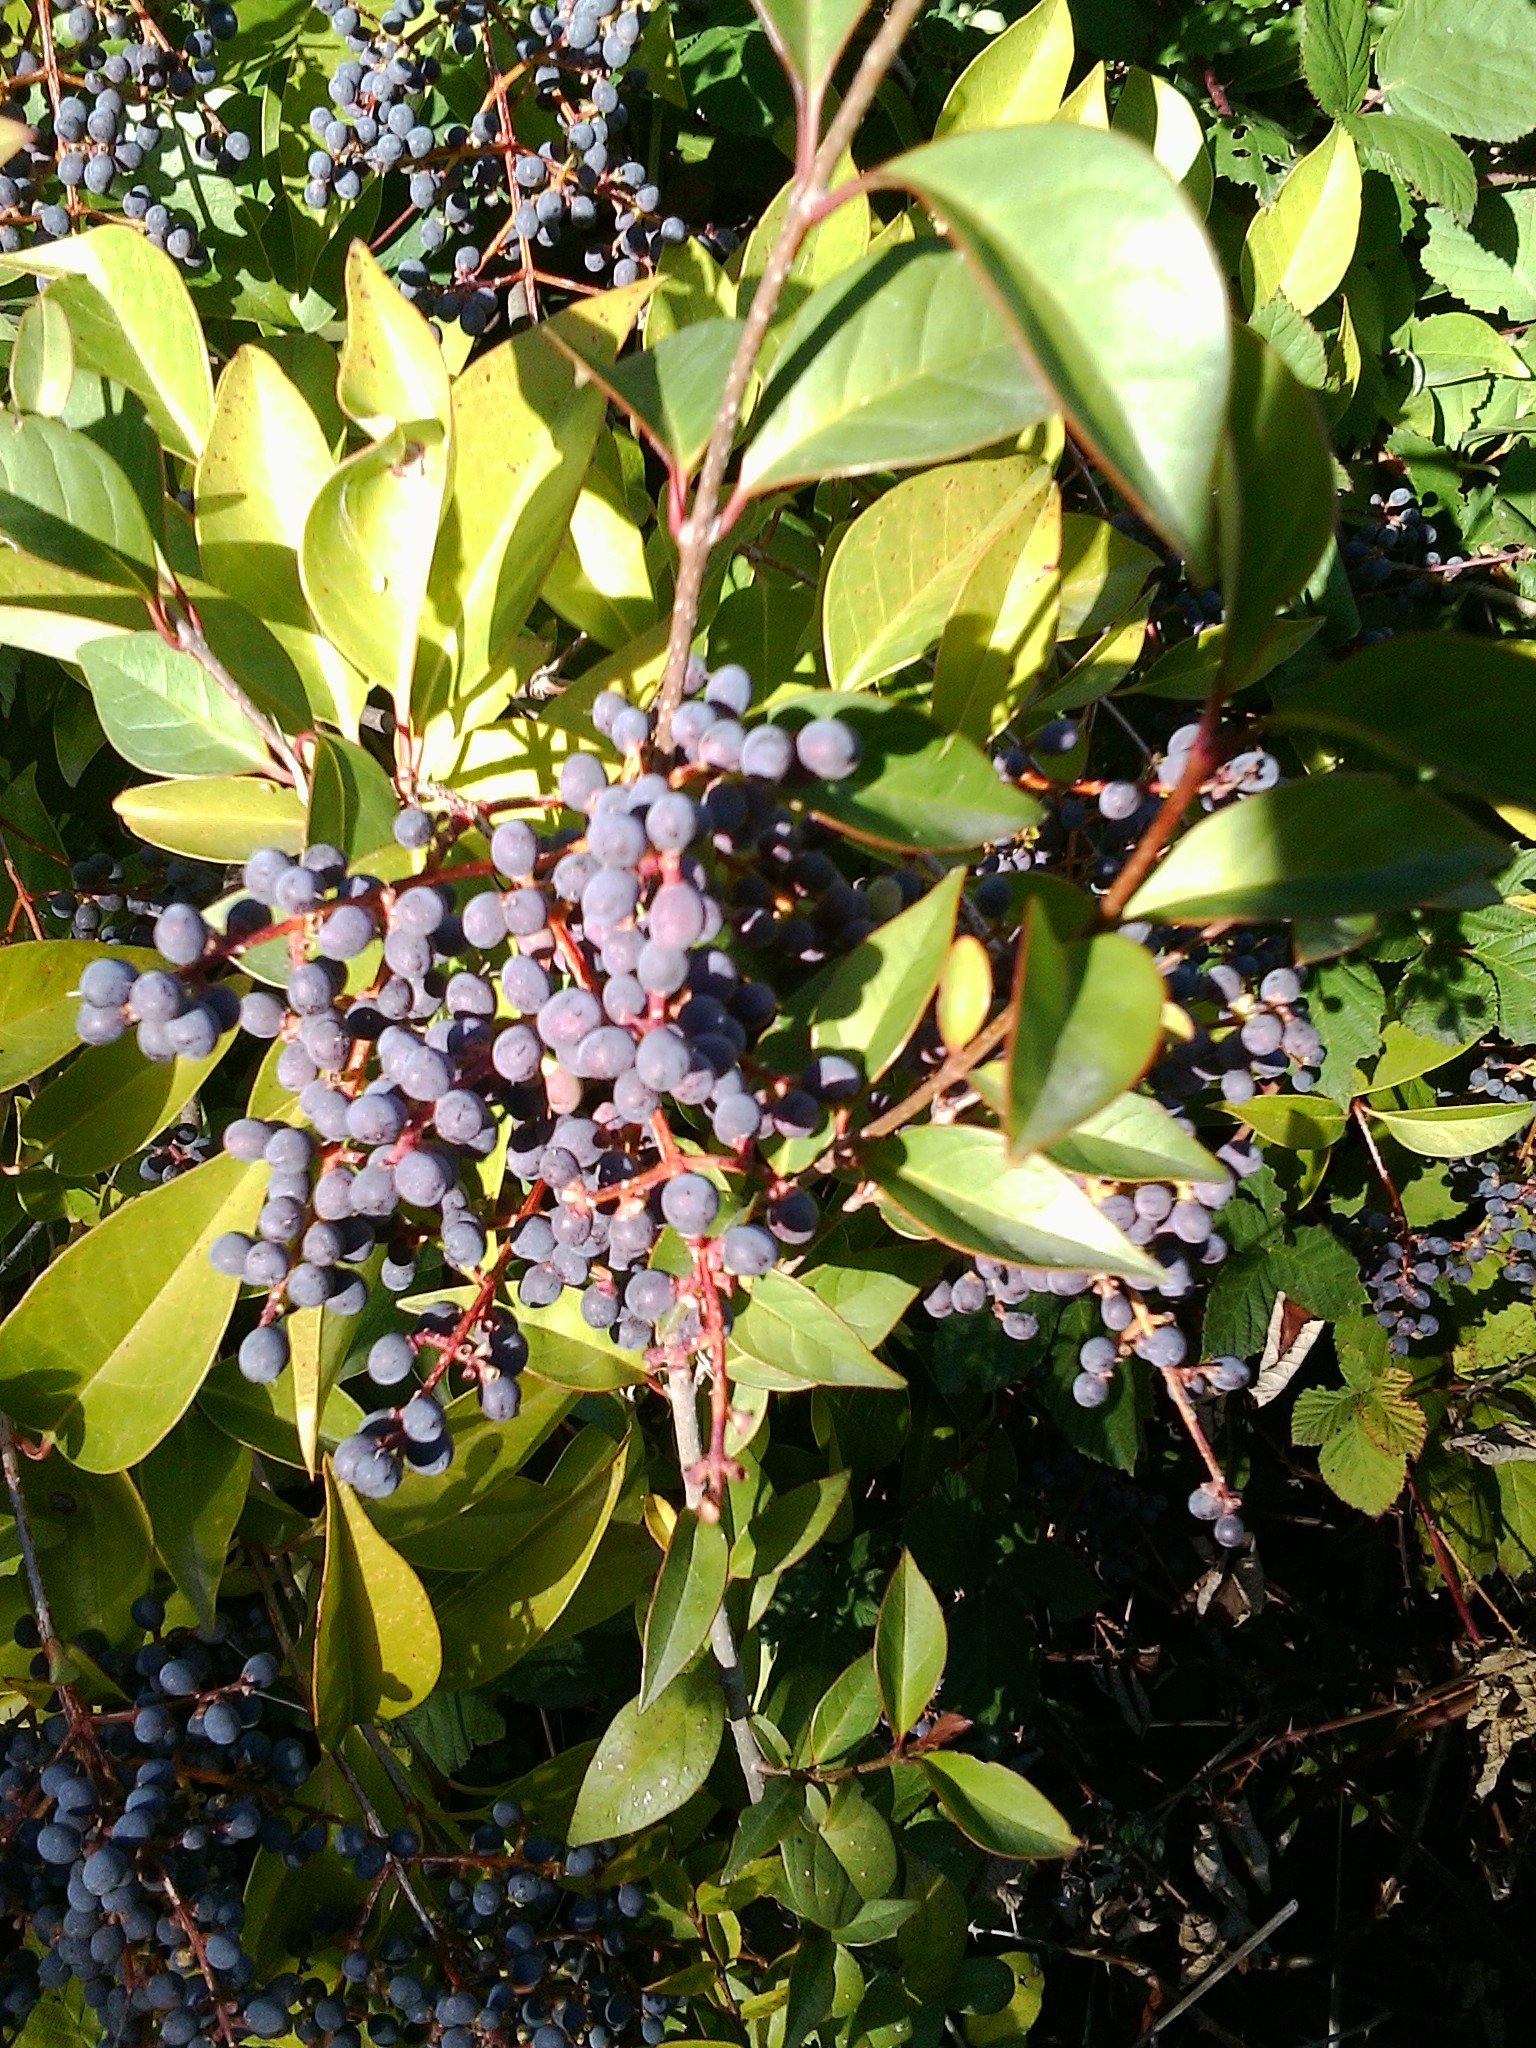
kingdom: Plantae
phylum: Tracheophyta
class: Magnoliopsida
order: Lamiales
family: Oleaceae
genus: Ligustrum
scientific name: Ligustrum lucidum
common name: Glossy privet
